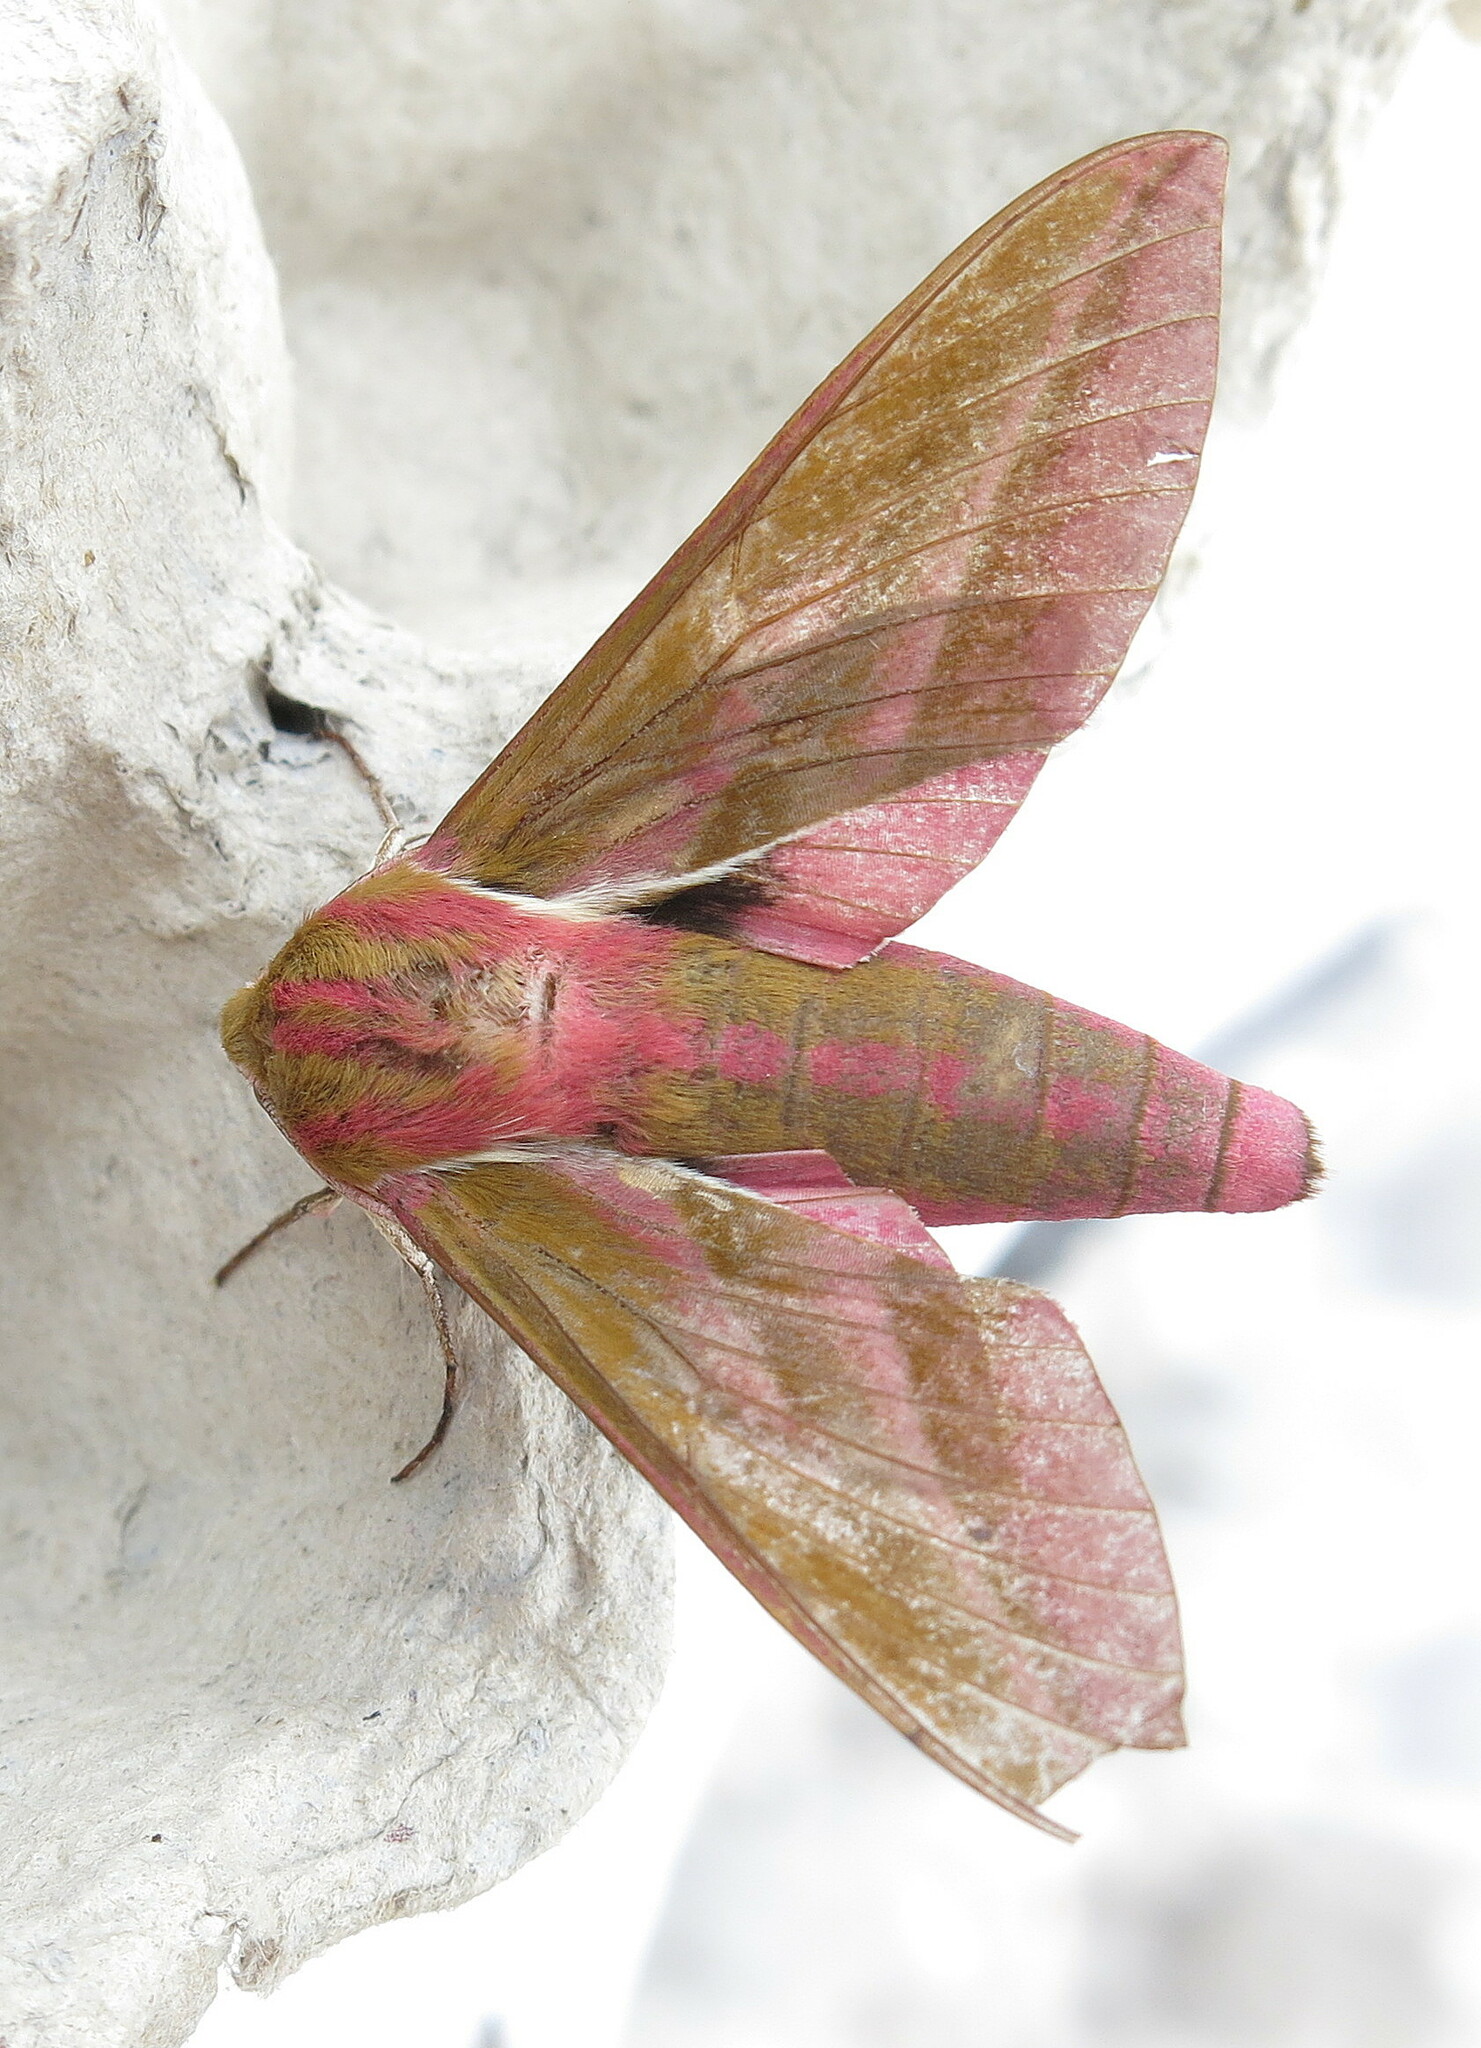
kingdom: Animalia
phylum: Arthropoda
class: Insecta
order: Lepidoptera
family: Sphingidae
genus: Deilephila
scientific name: Deilephila elpenor
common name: Elephant hawk-moth
